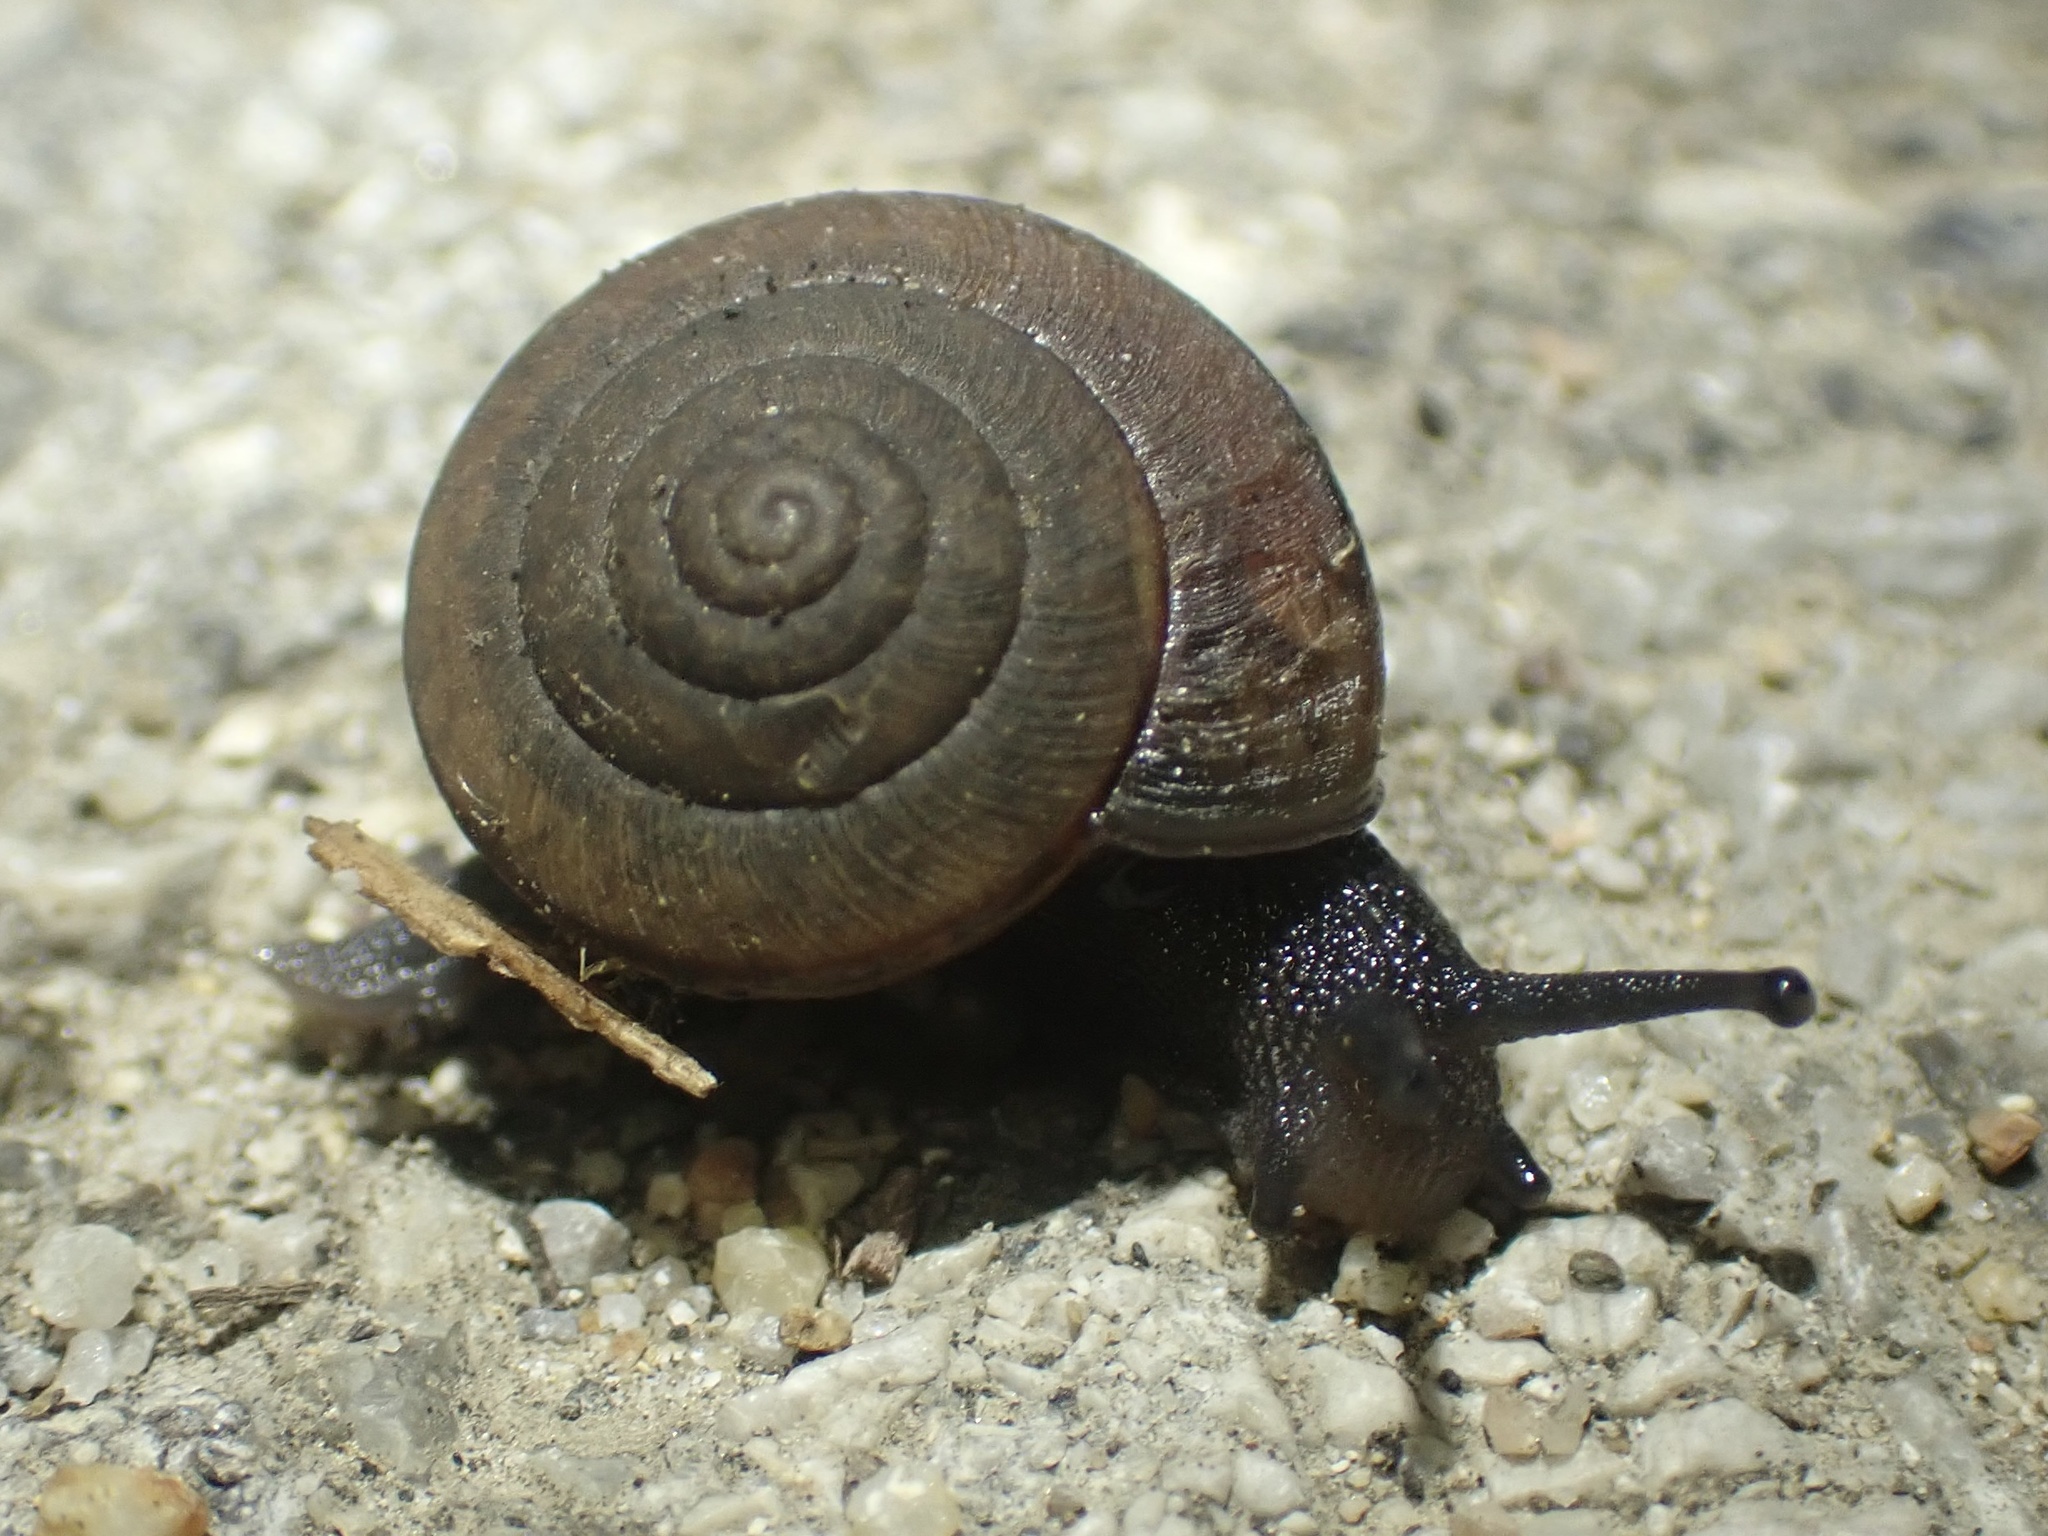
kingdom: Animalia
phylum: Mollusca
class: Gastropoda
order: Stylommatophora
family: Xanthonychidae
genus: Helminthoglypta
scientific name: Helminthoglypta arrosa
